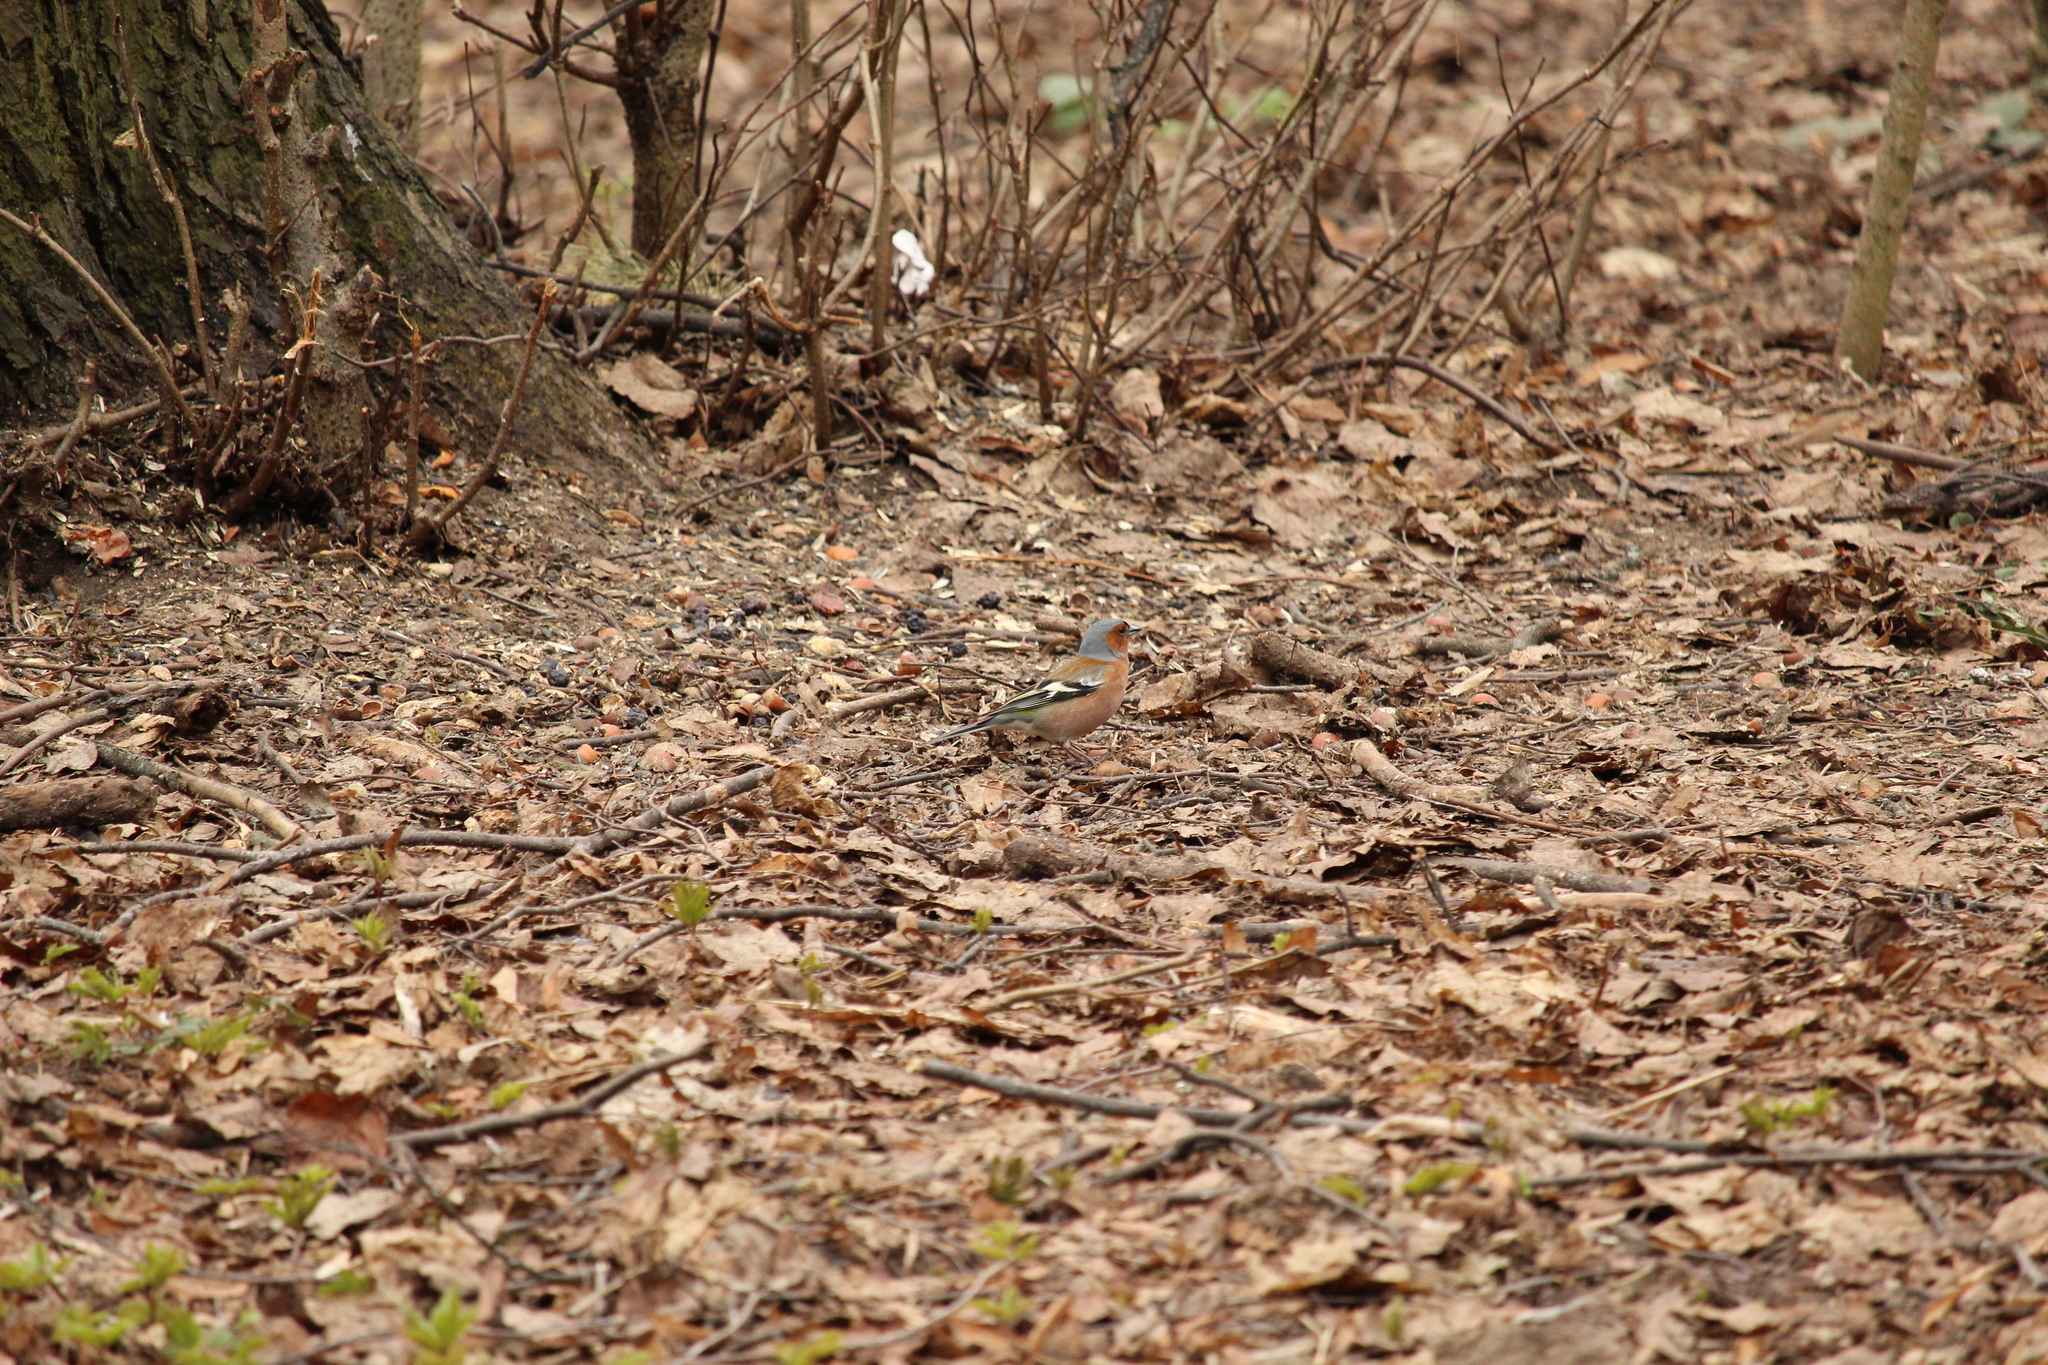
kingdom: Animalia
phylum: Chordata
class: Aves
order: Passeriformes
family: Fringillidae
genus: Fringilla
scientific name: Fringilla coelebs
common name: Common chaffinch
